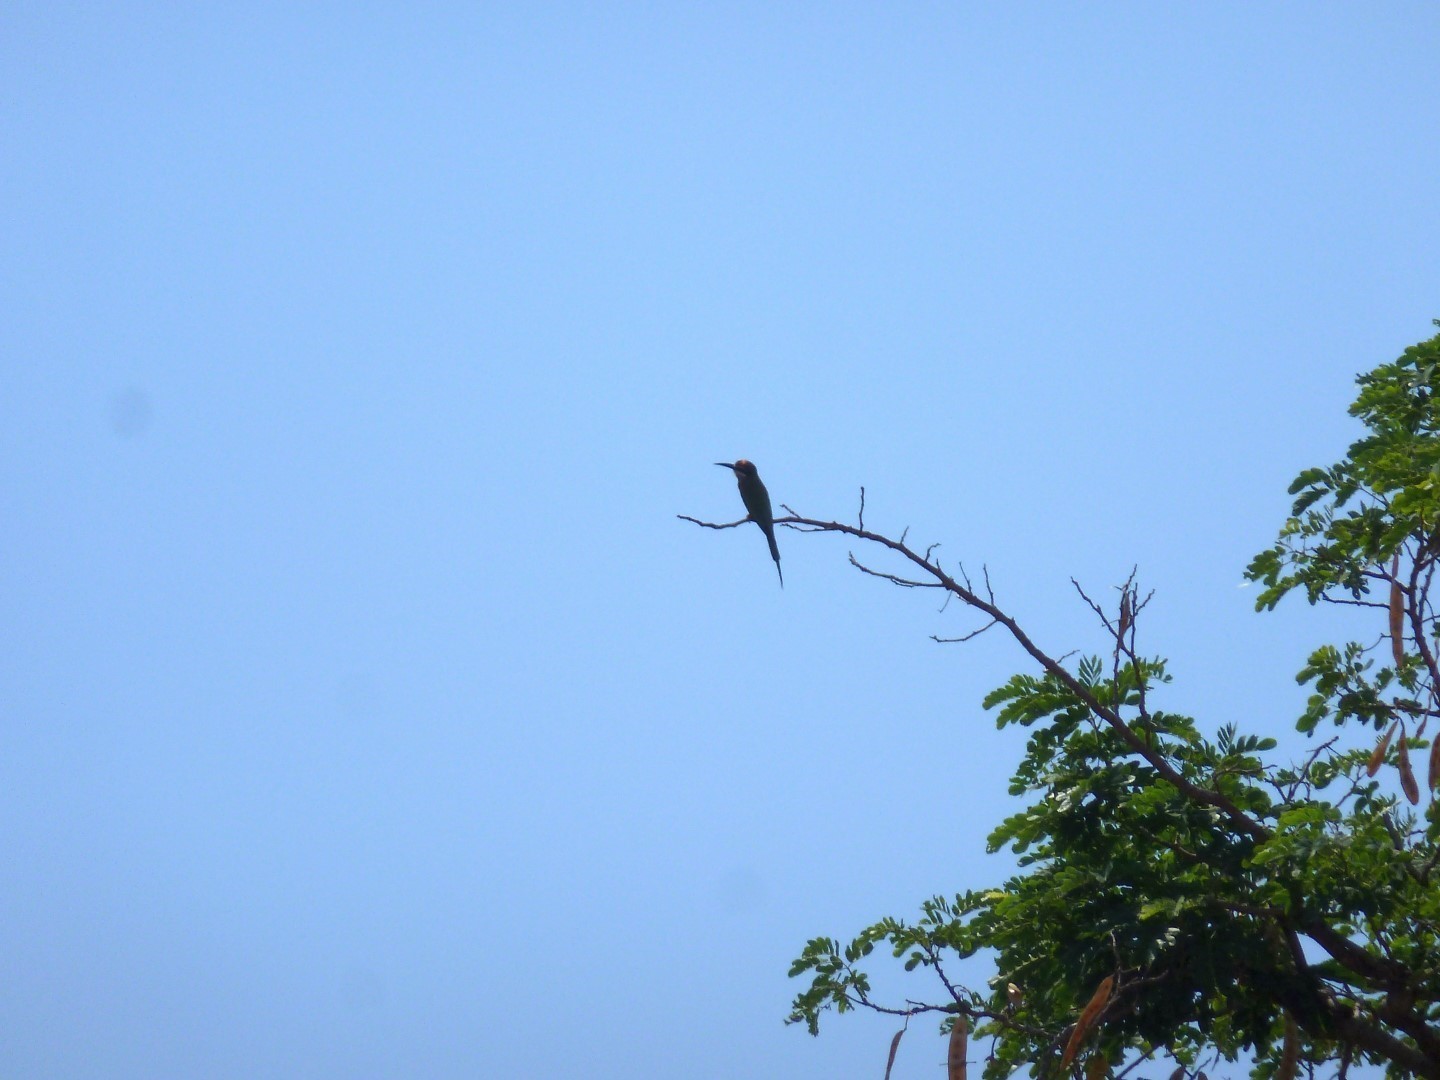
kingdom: Animalia
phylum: Chordata
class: Aves
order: Coraciiformes
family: Meropidae
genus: Merops
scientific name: Merops superciliosus
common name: Olive bee-eater
